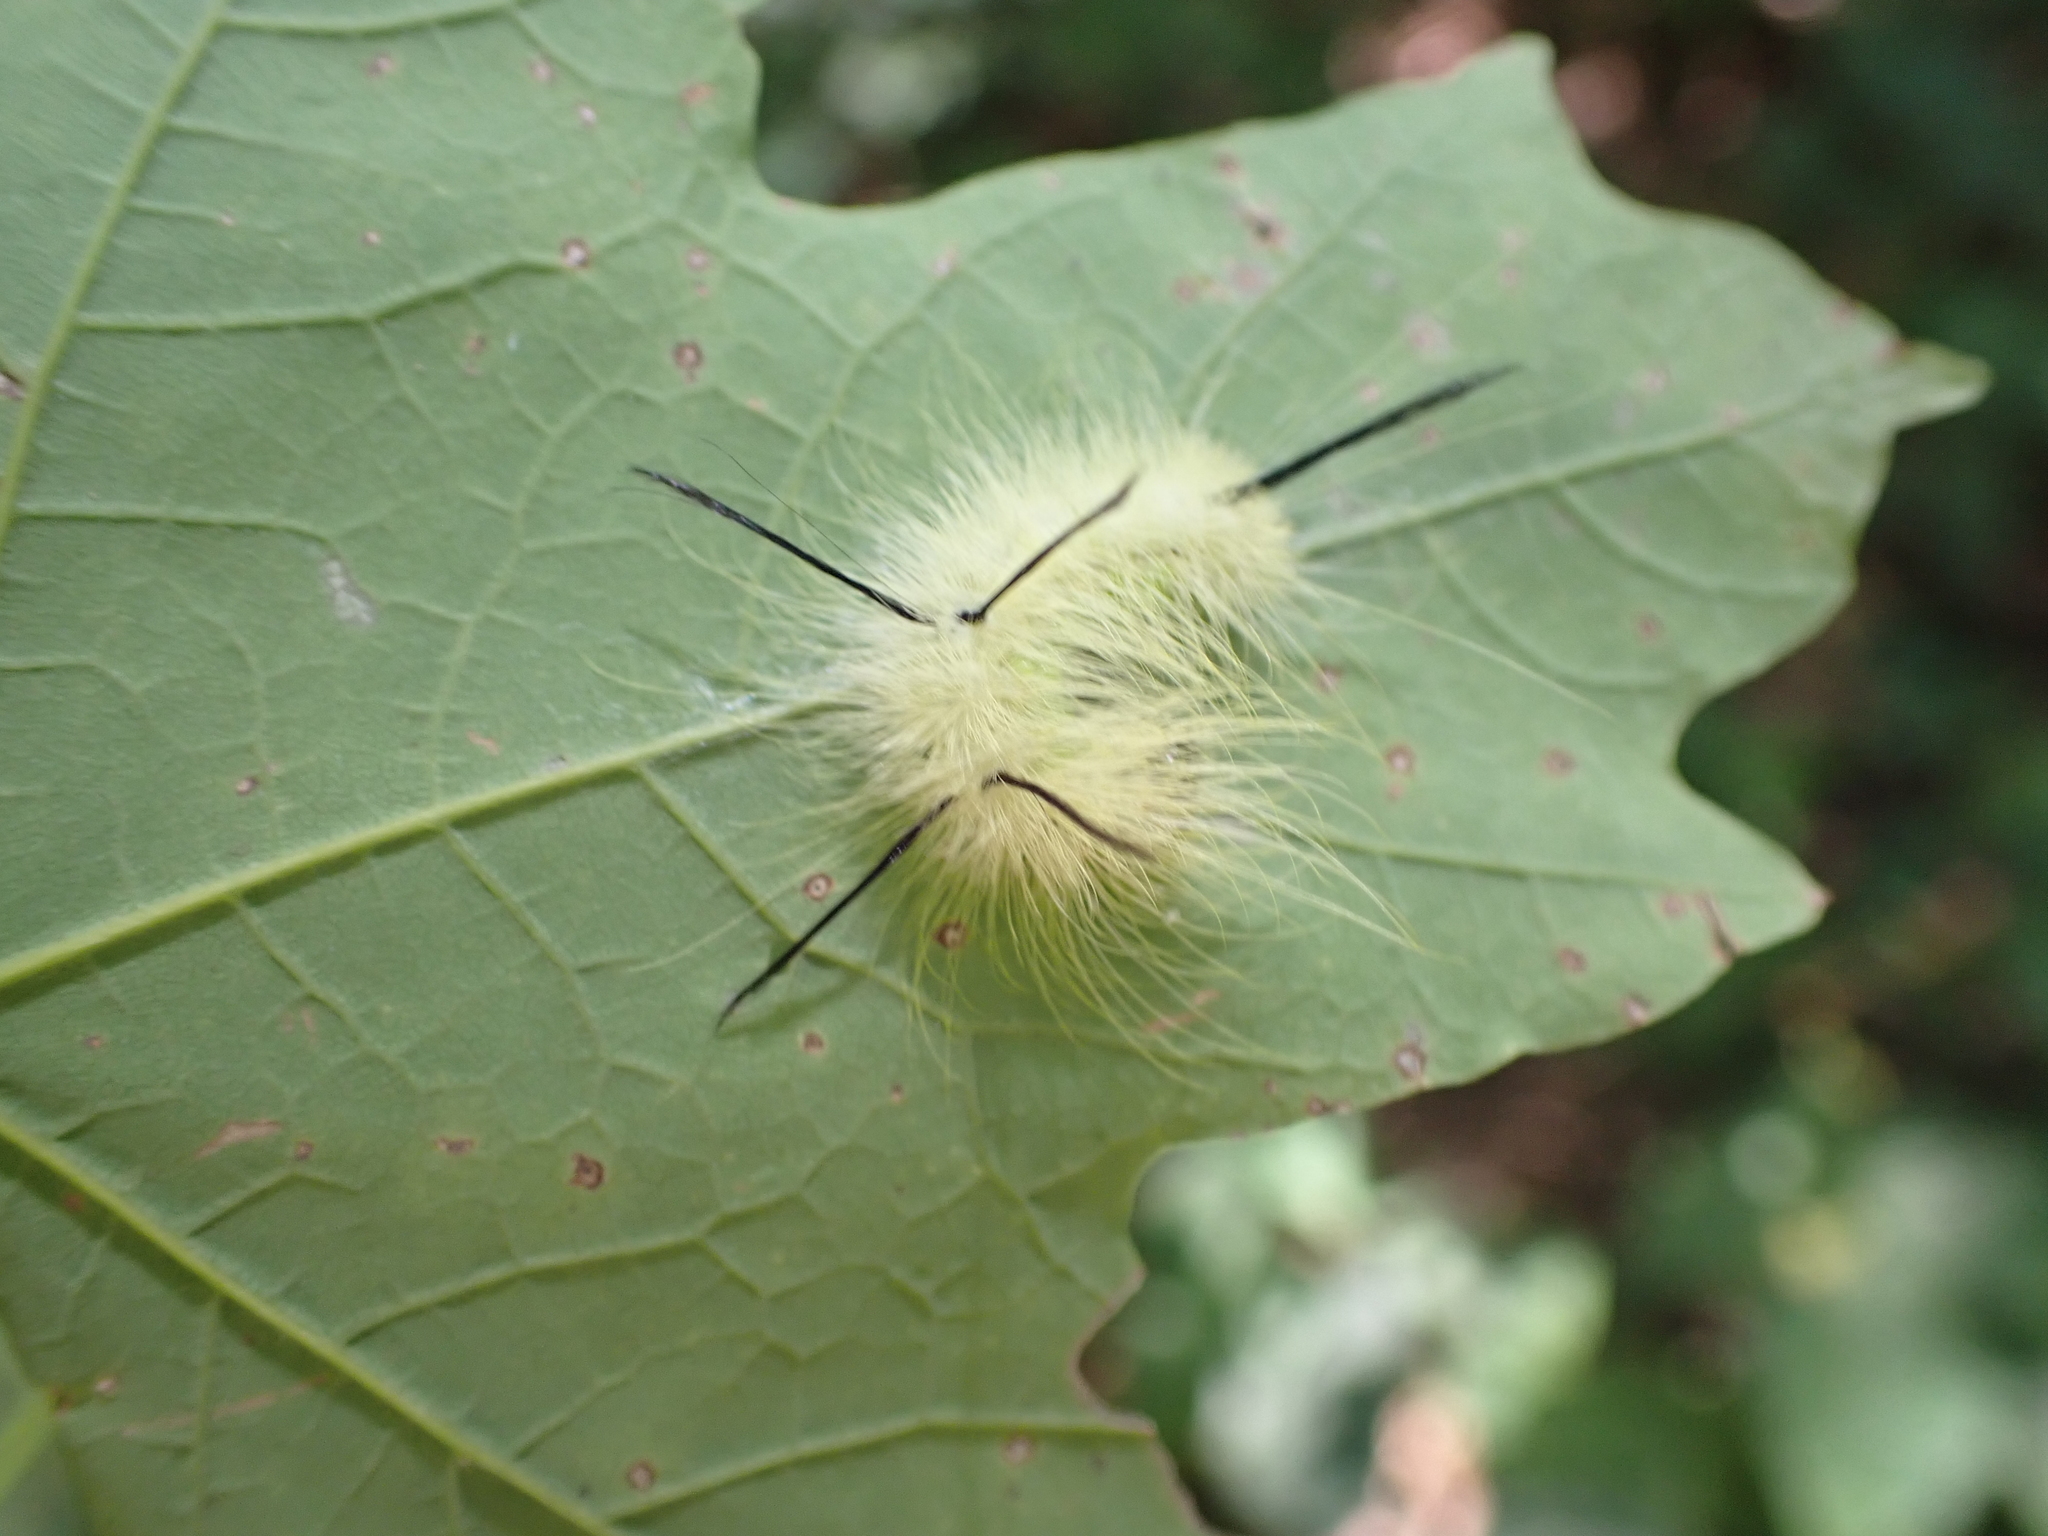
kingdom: Animalia
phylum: Arthropoda
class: Insecta
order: Lepidoptera
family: Noctuidae
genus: Acronicta
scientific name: Acronicta americana
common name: American dagger
